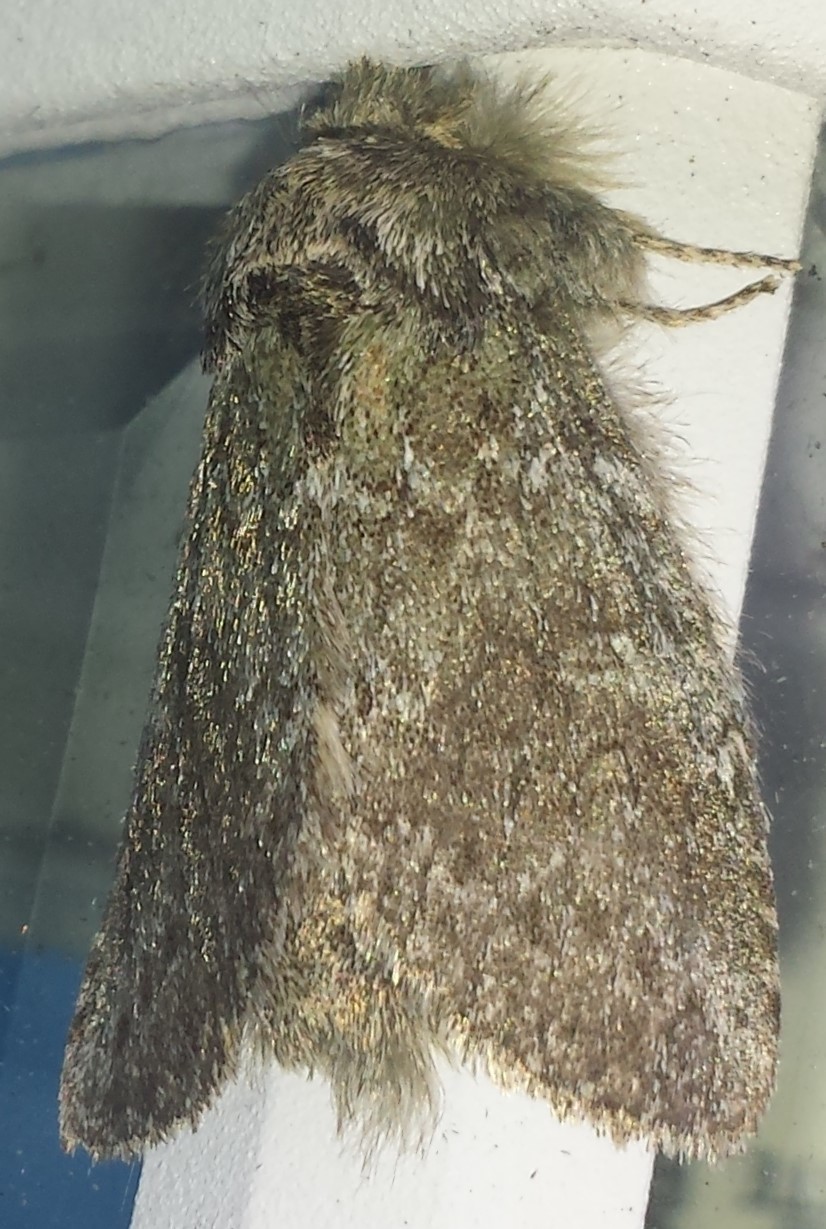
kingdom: Animalia
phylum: Arthropoda
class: Insecta
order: Lepidoptera
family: Notodontidae
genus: Disphragis
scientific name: Disphragis Cecrita guttivitta
